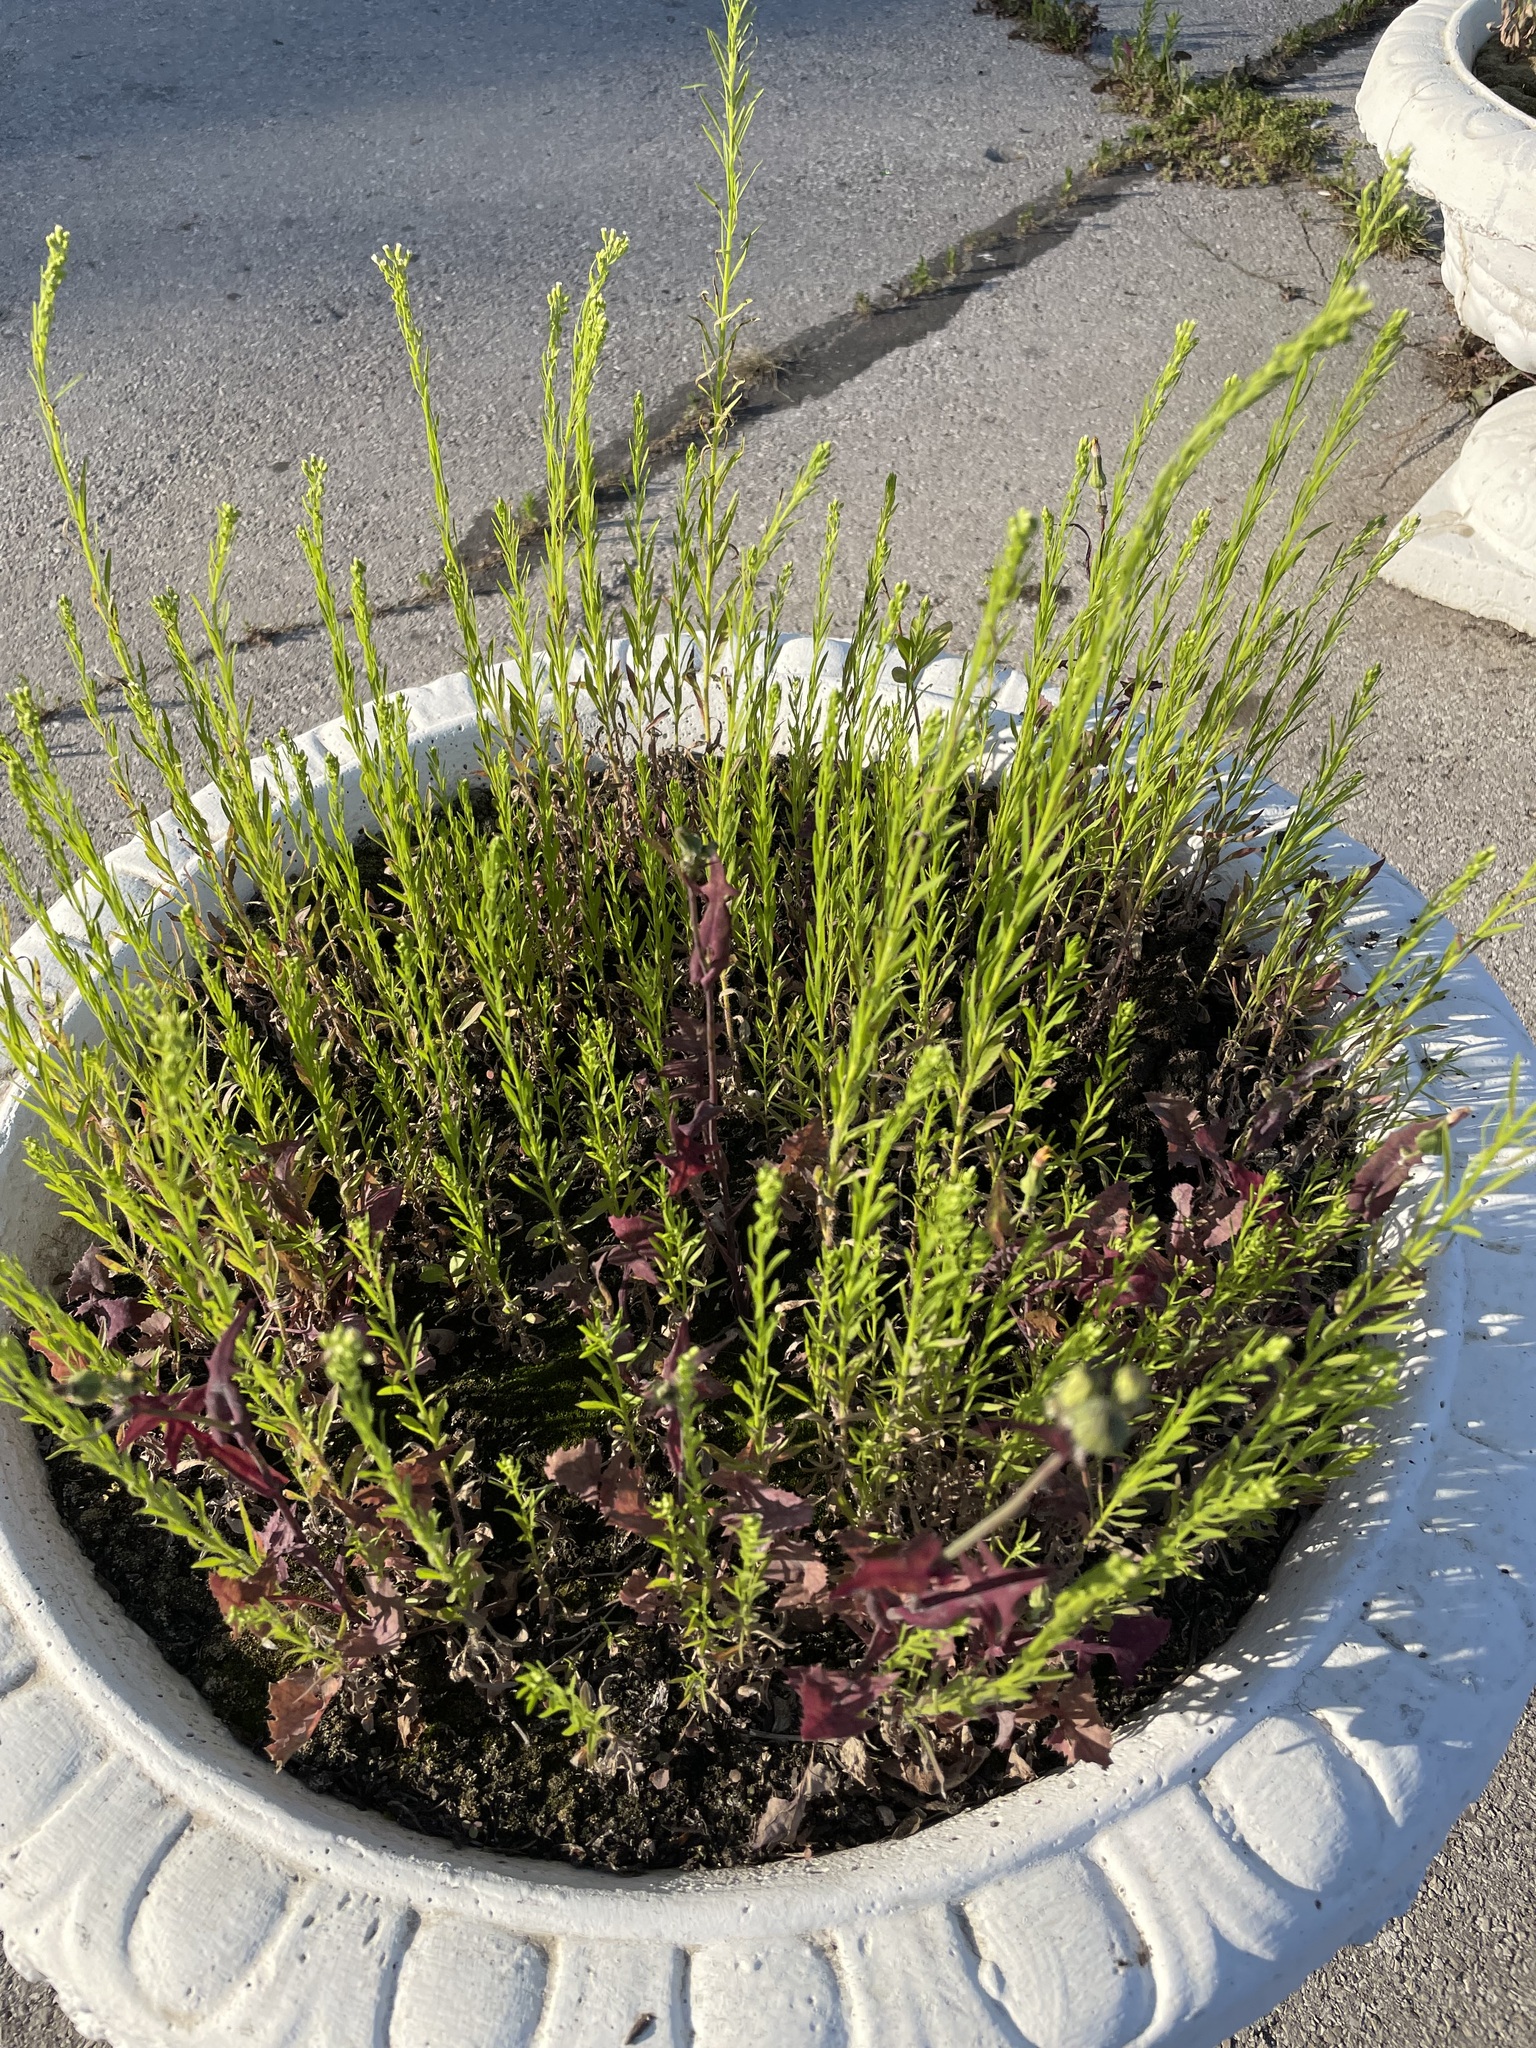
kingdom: Plantae
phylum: Tracheophyta
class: Magnoliopsida
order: Asterales
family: Asteraceae
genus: Erigeron
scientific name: Erigeron canadensis
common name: Canadian fleabane
